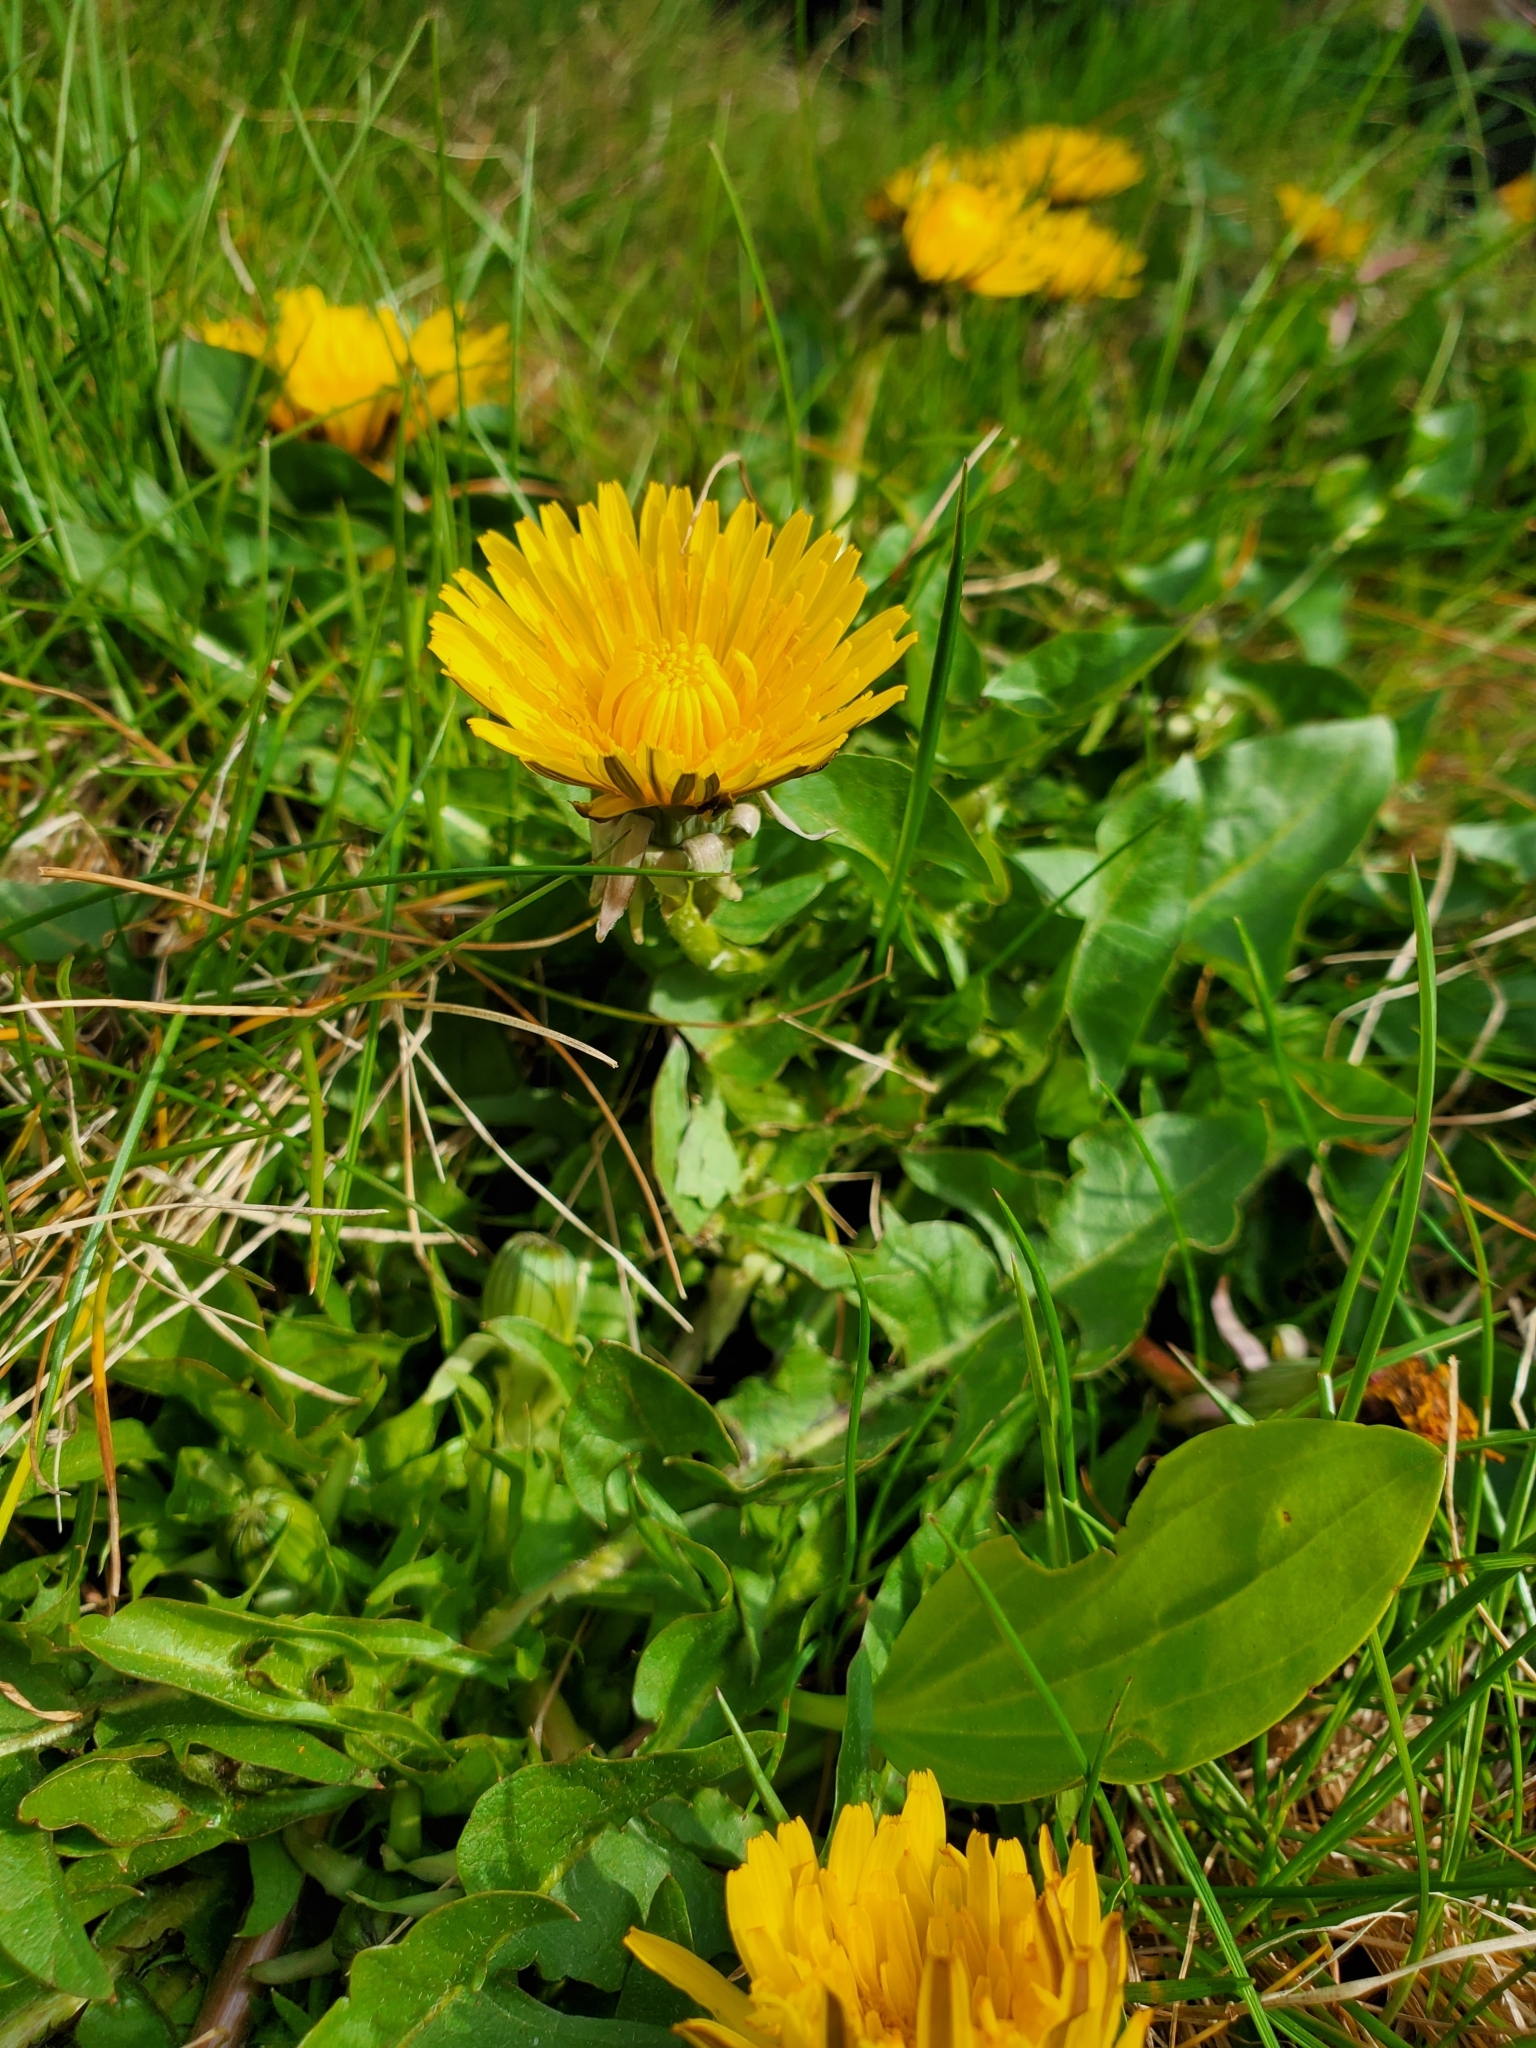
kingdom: Plantae
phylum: Tracheophyta
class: Magnoliopsida
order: Asterales
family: Asteraceae
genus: Taraxacum
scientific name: Taraxacum officinale
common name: Common dandelion
